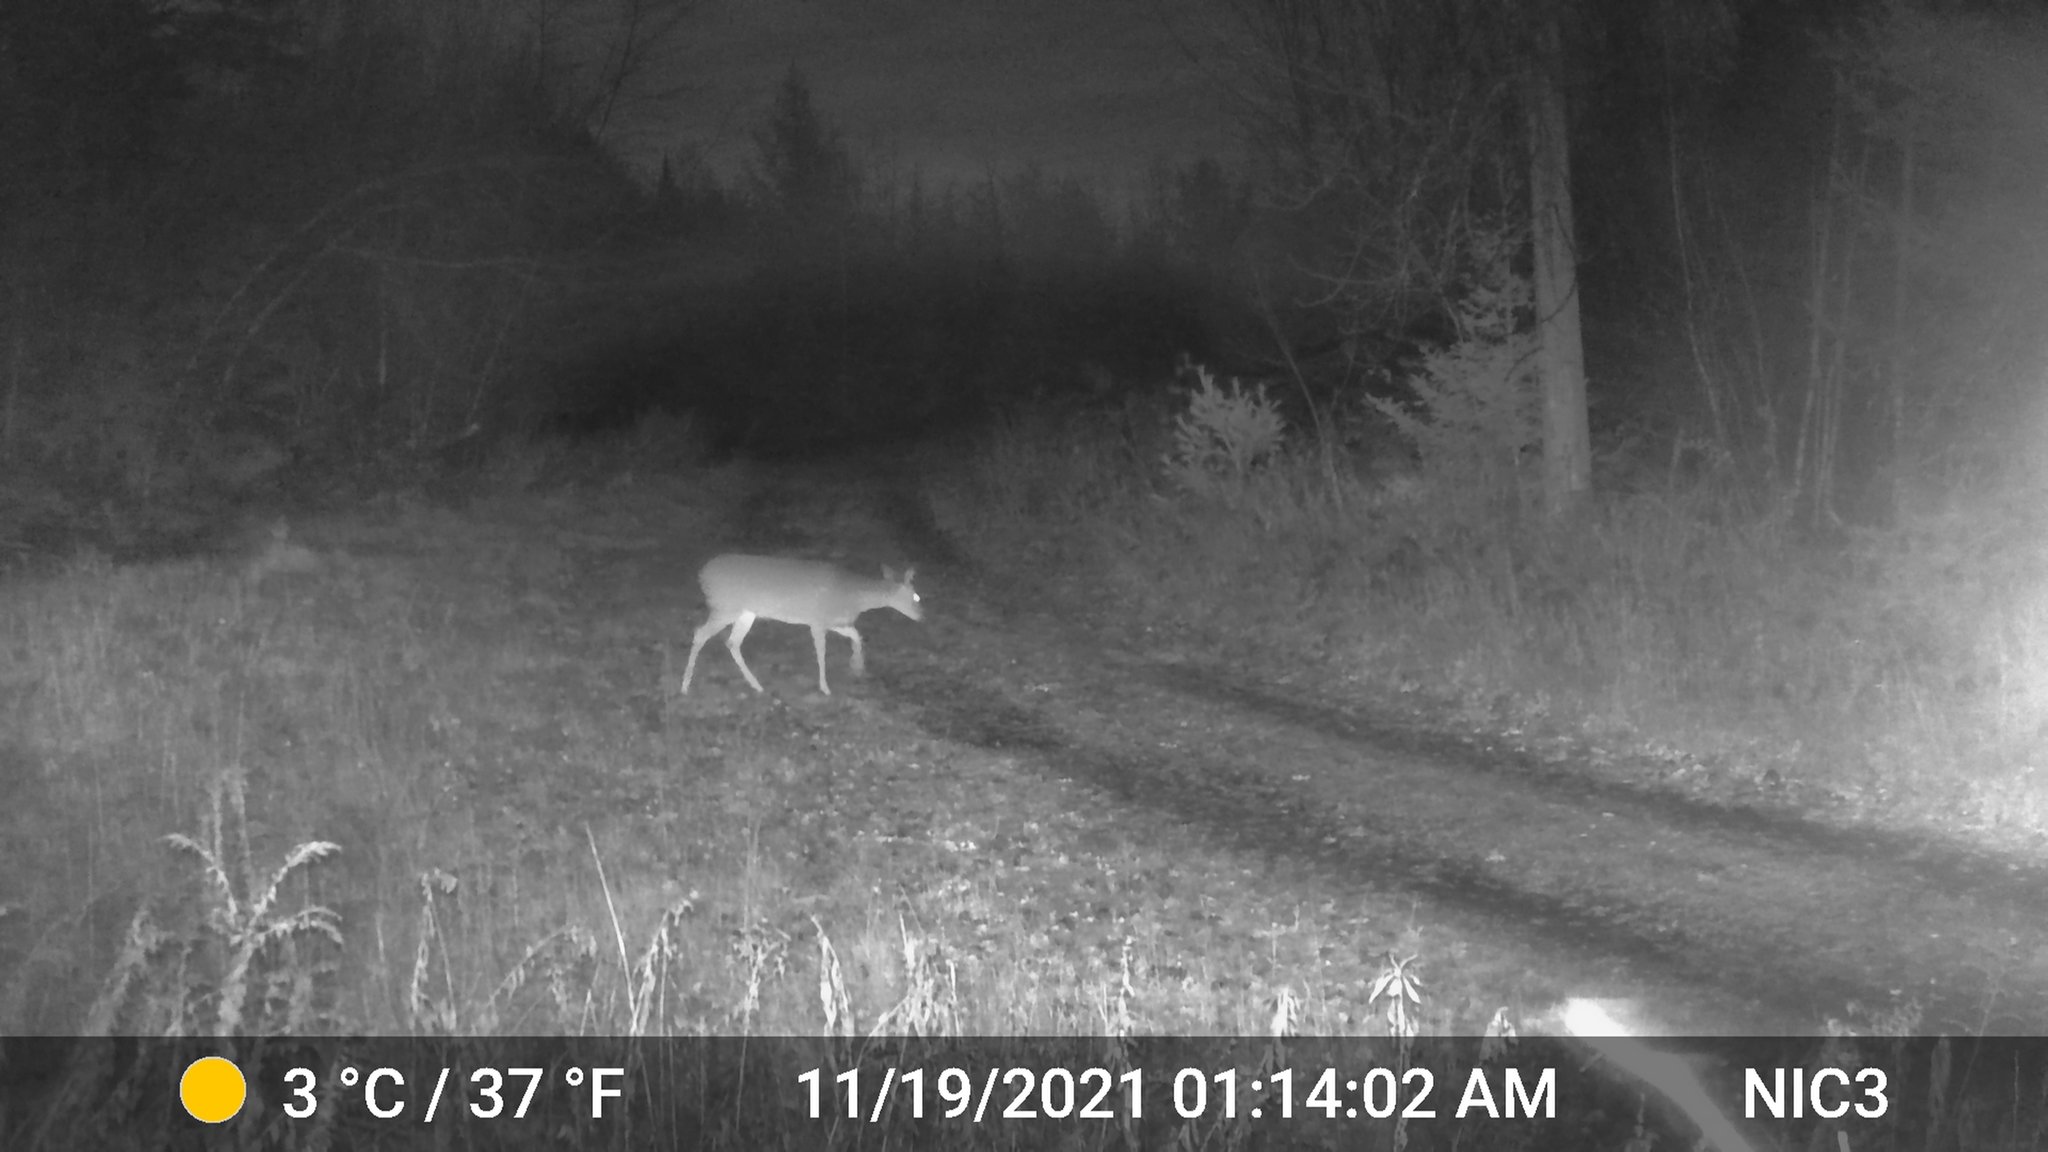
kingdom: Animalia
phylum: Chordata
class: Mammalia
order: Artiodactyla
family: Cervidae
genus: Odocoileus
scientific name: Odocoileus virginianus
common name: White-tailed deer
